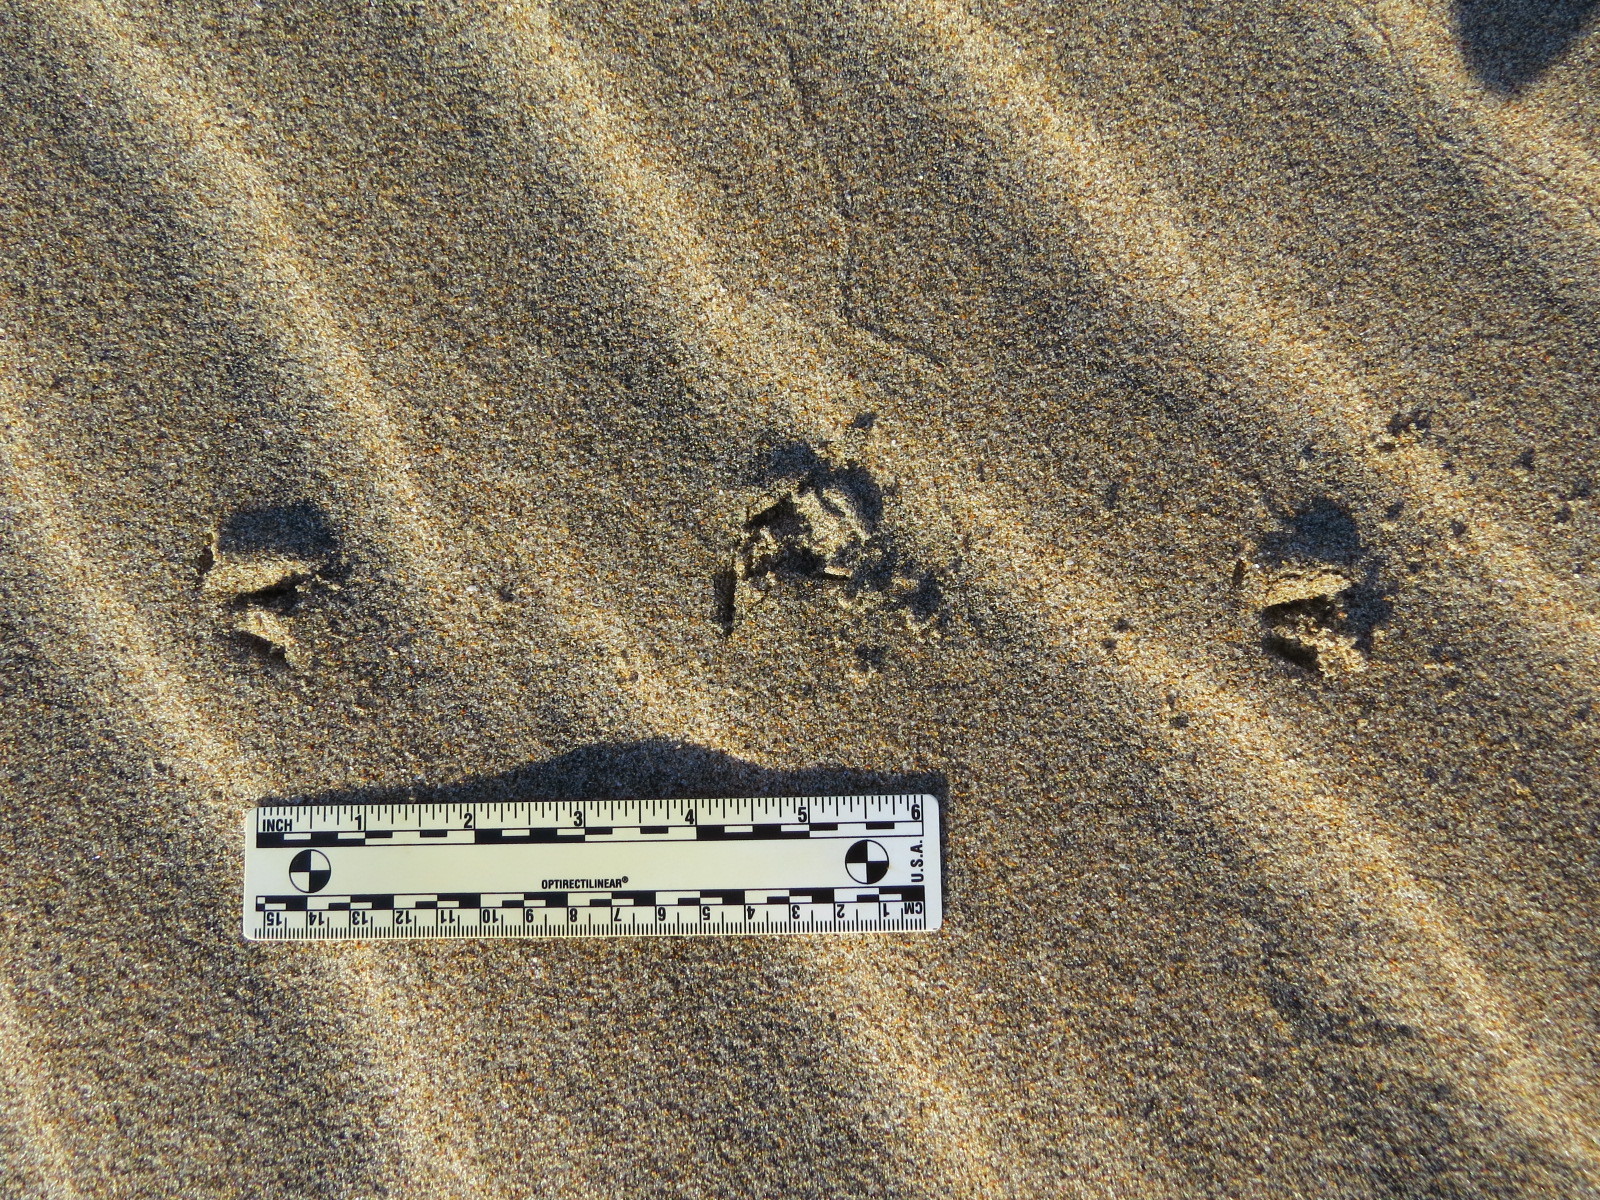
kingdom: Animalia
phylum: Chordata
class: Aves
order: Charadriiformes
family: Charadriidae
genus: Charadrius
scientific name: Charadrius vociferus
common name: Killdeer
